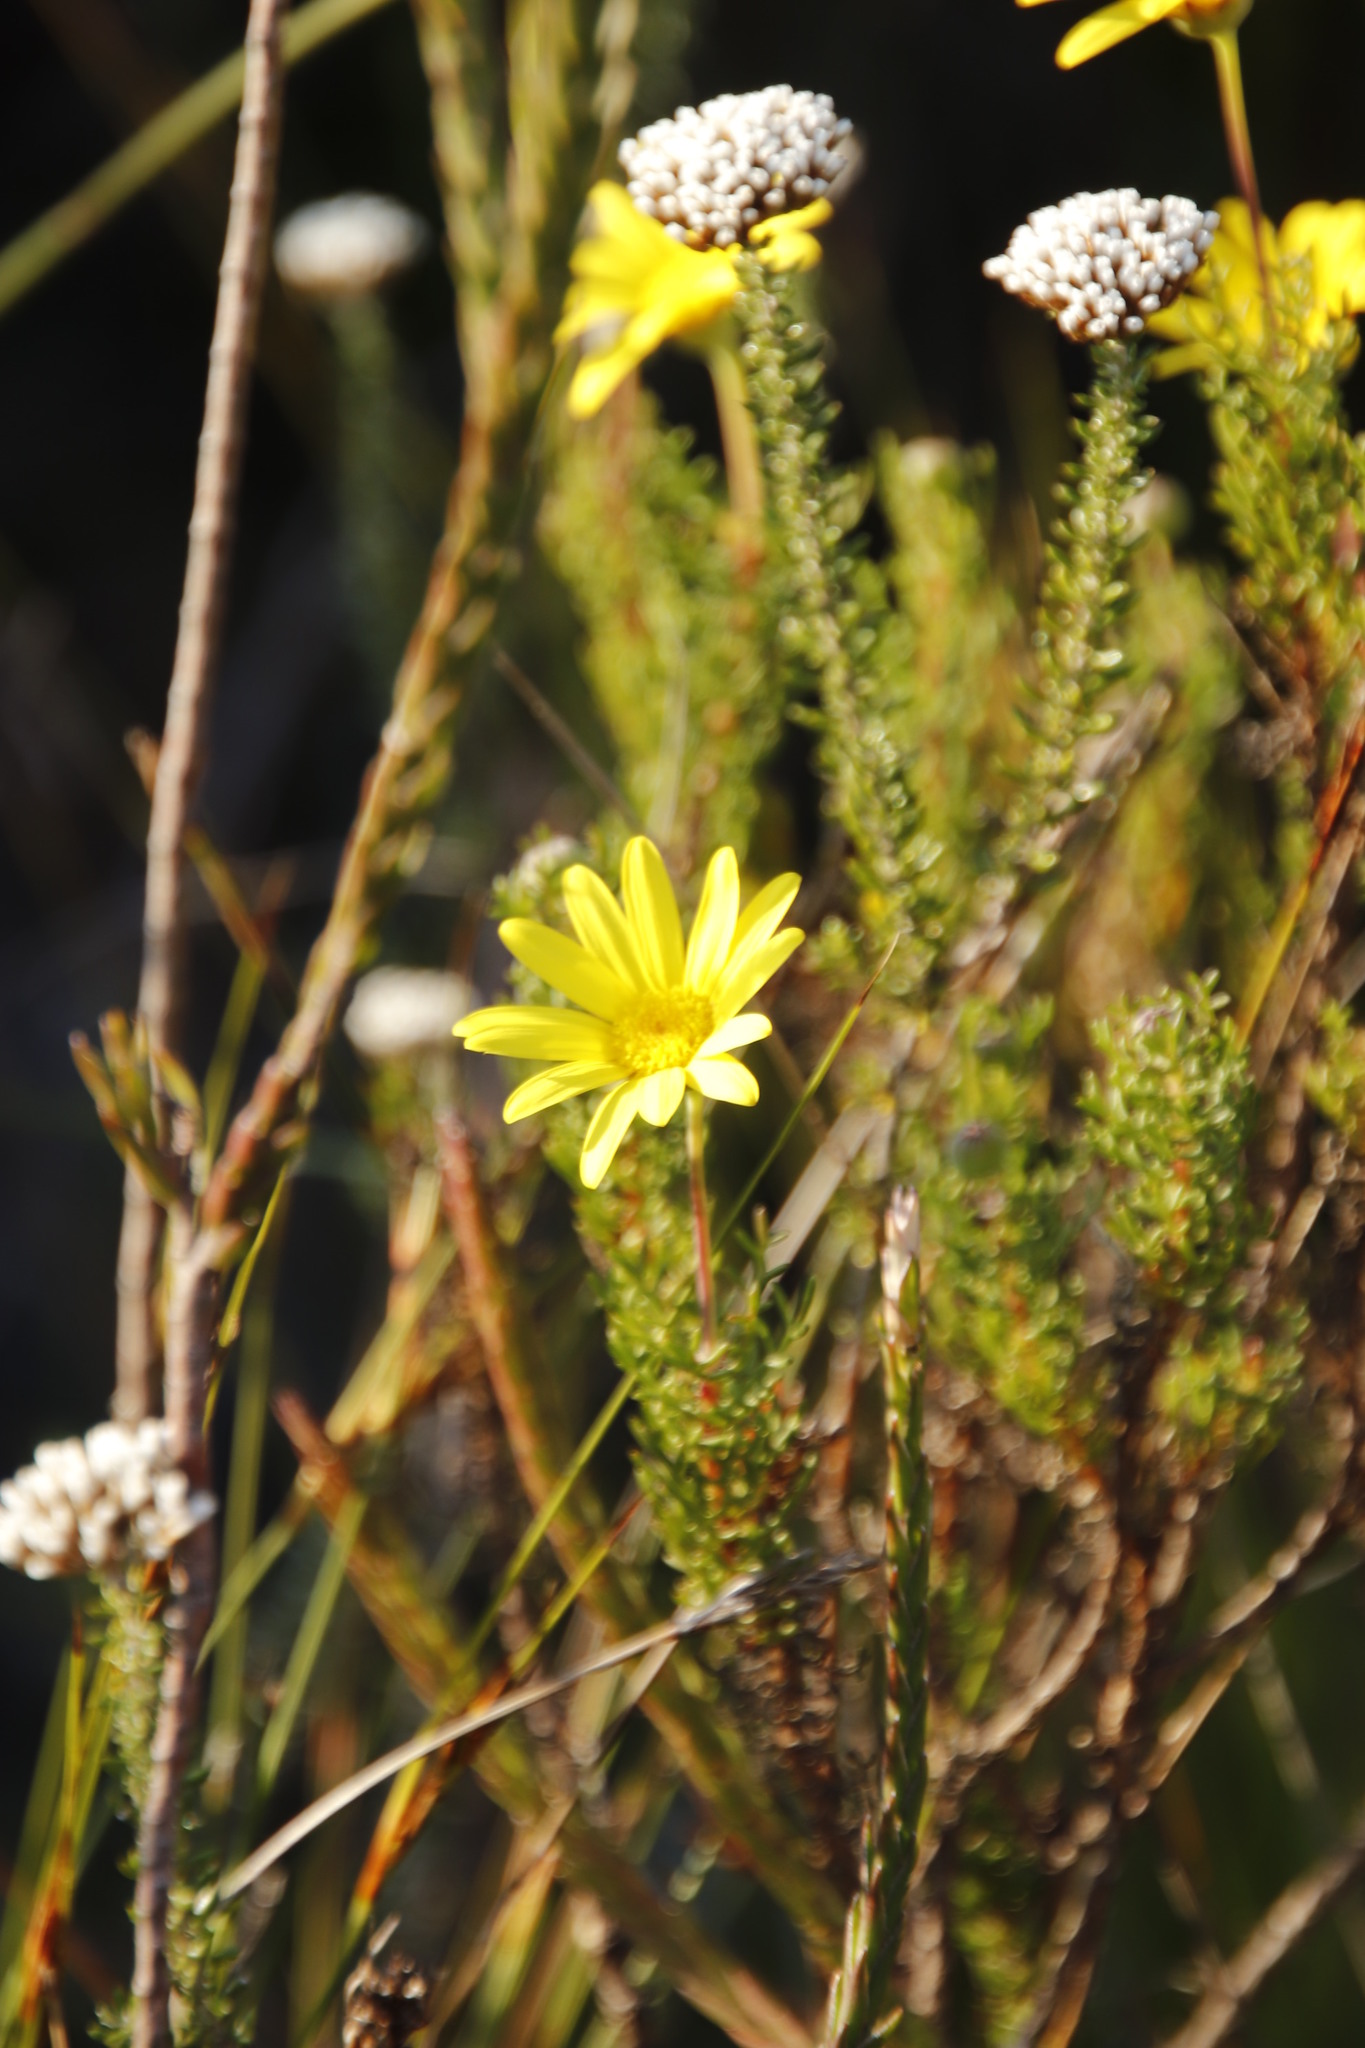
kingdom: Plantae
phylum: Tracheophyta
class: Magnoliopsida
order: Asterales
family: Asteraceae
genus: Euryops
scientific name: Euryops abrotanifolius
